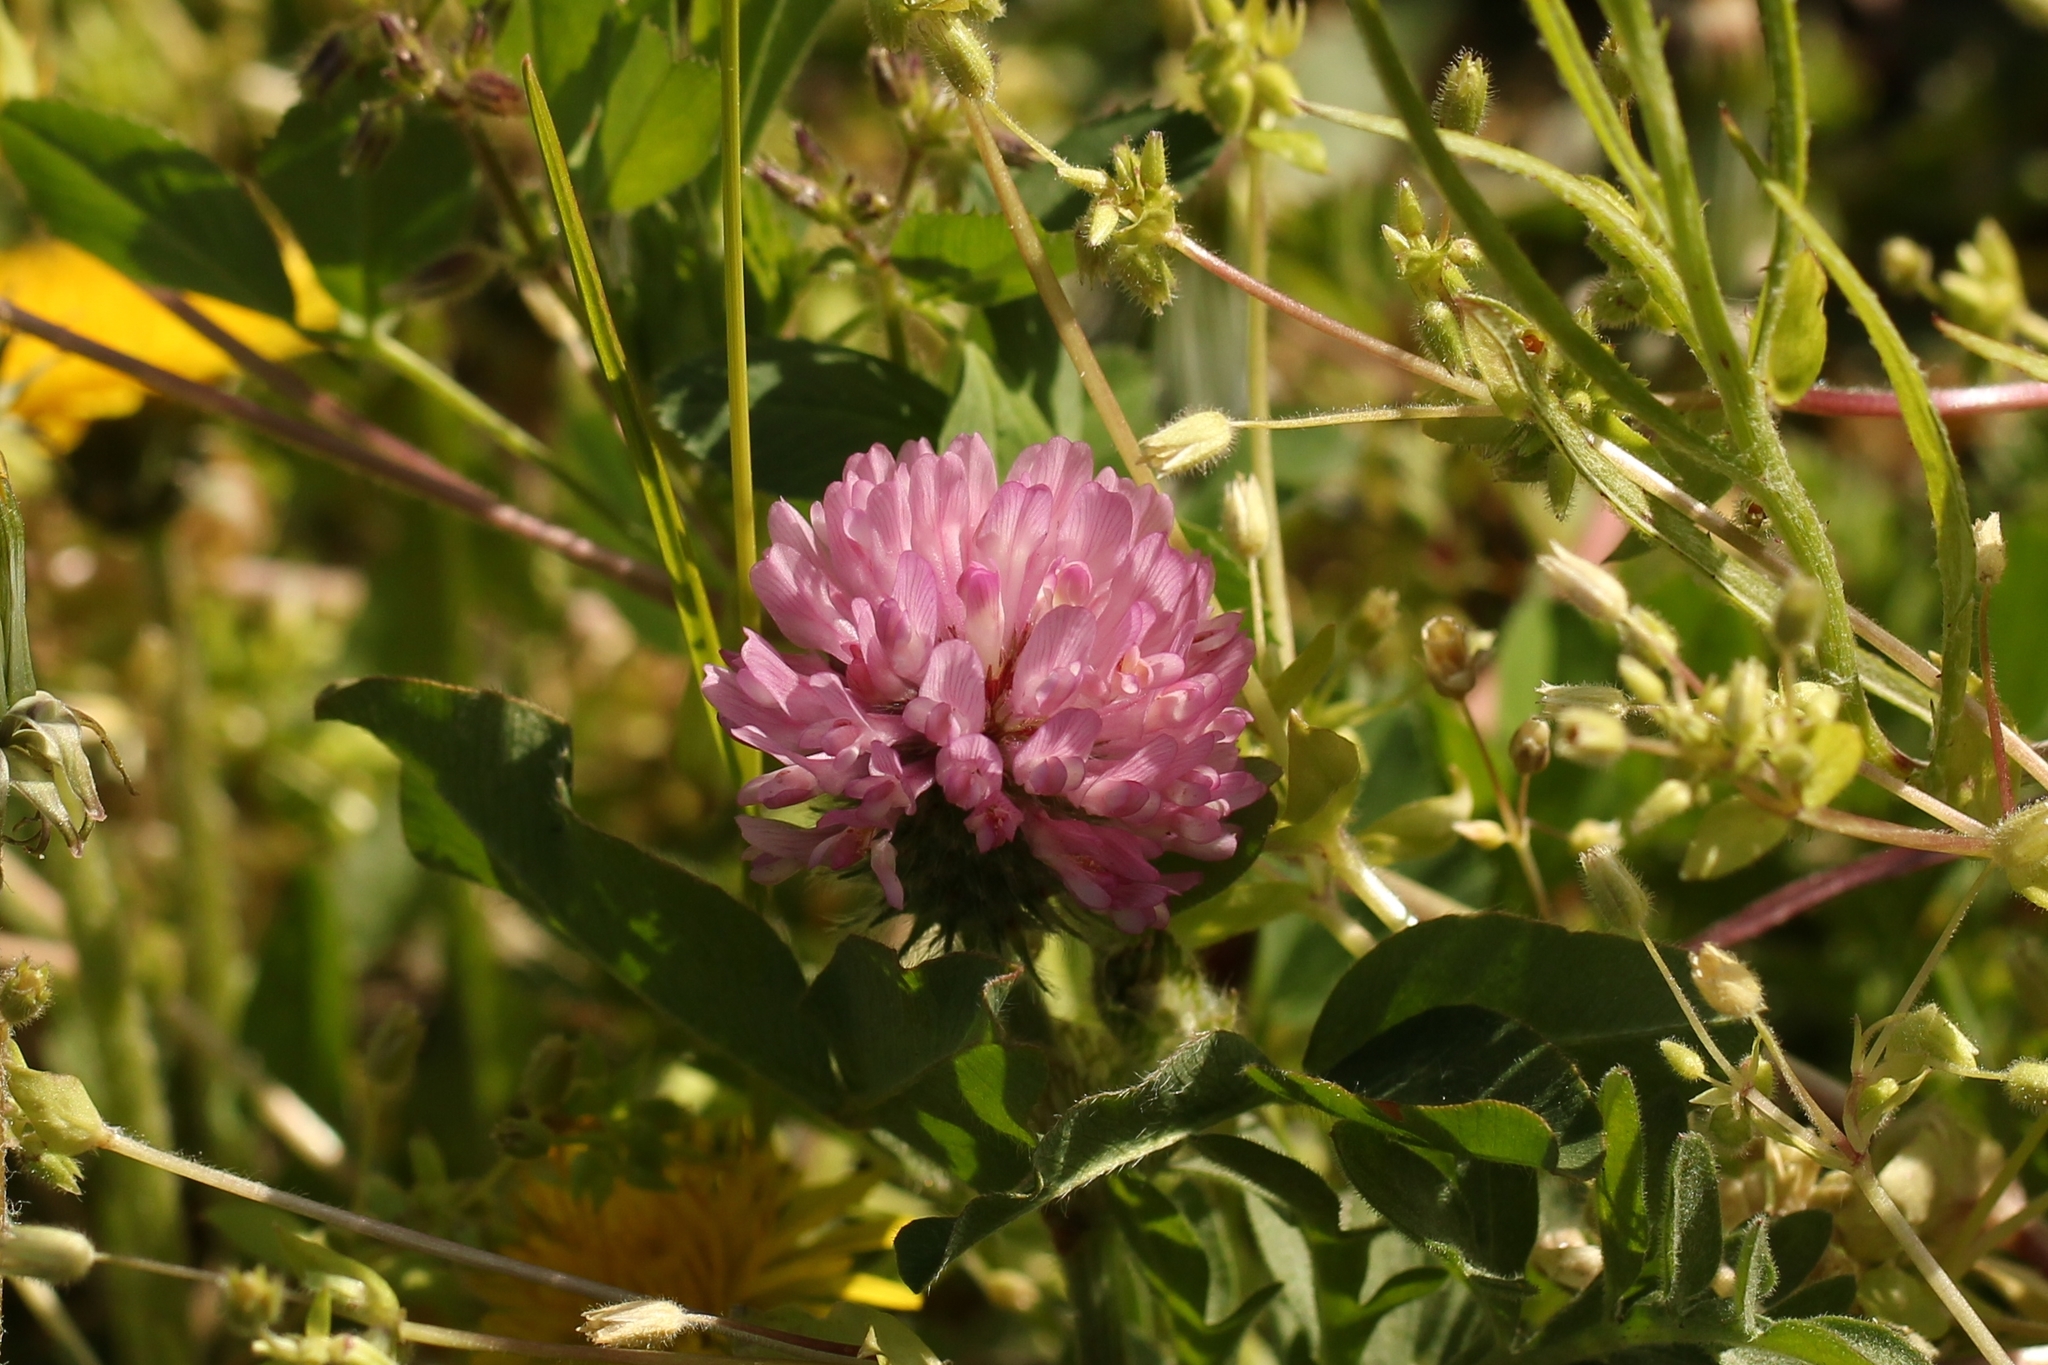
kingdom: Plantae
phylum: Tracheophyta
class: Magnoliopsida
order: Fabales
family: Fabaceae
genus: Trifolium
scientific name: Trifolium pratense
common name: Red clover
